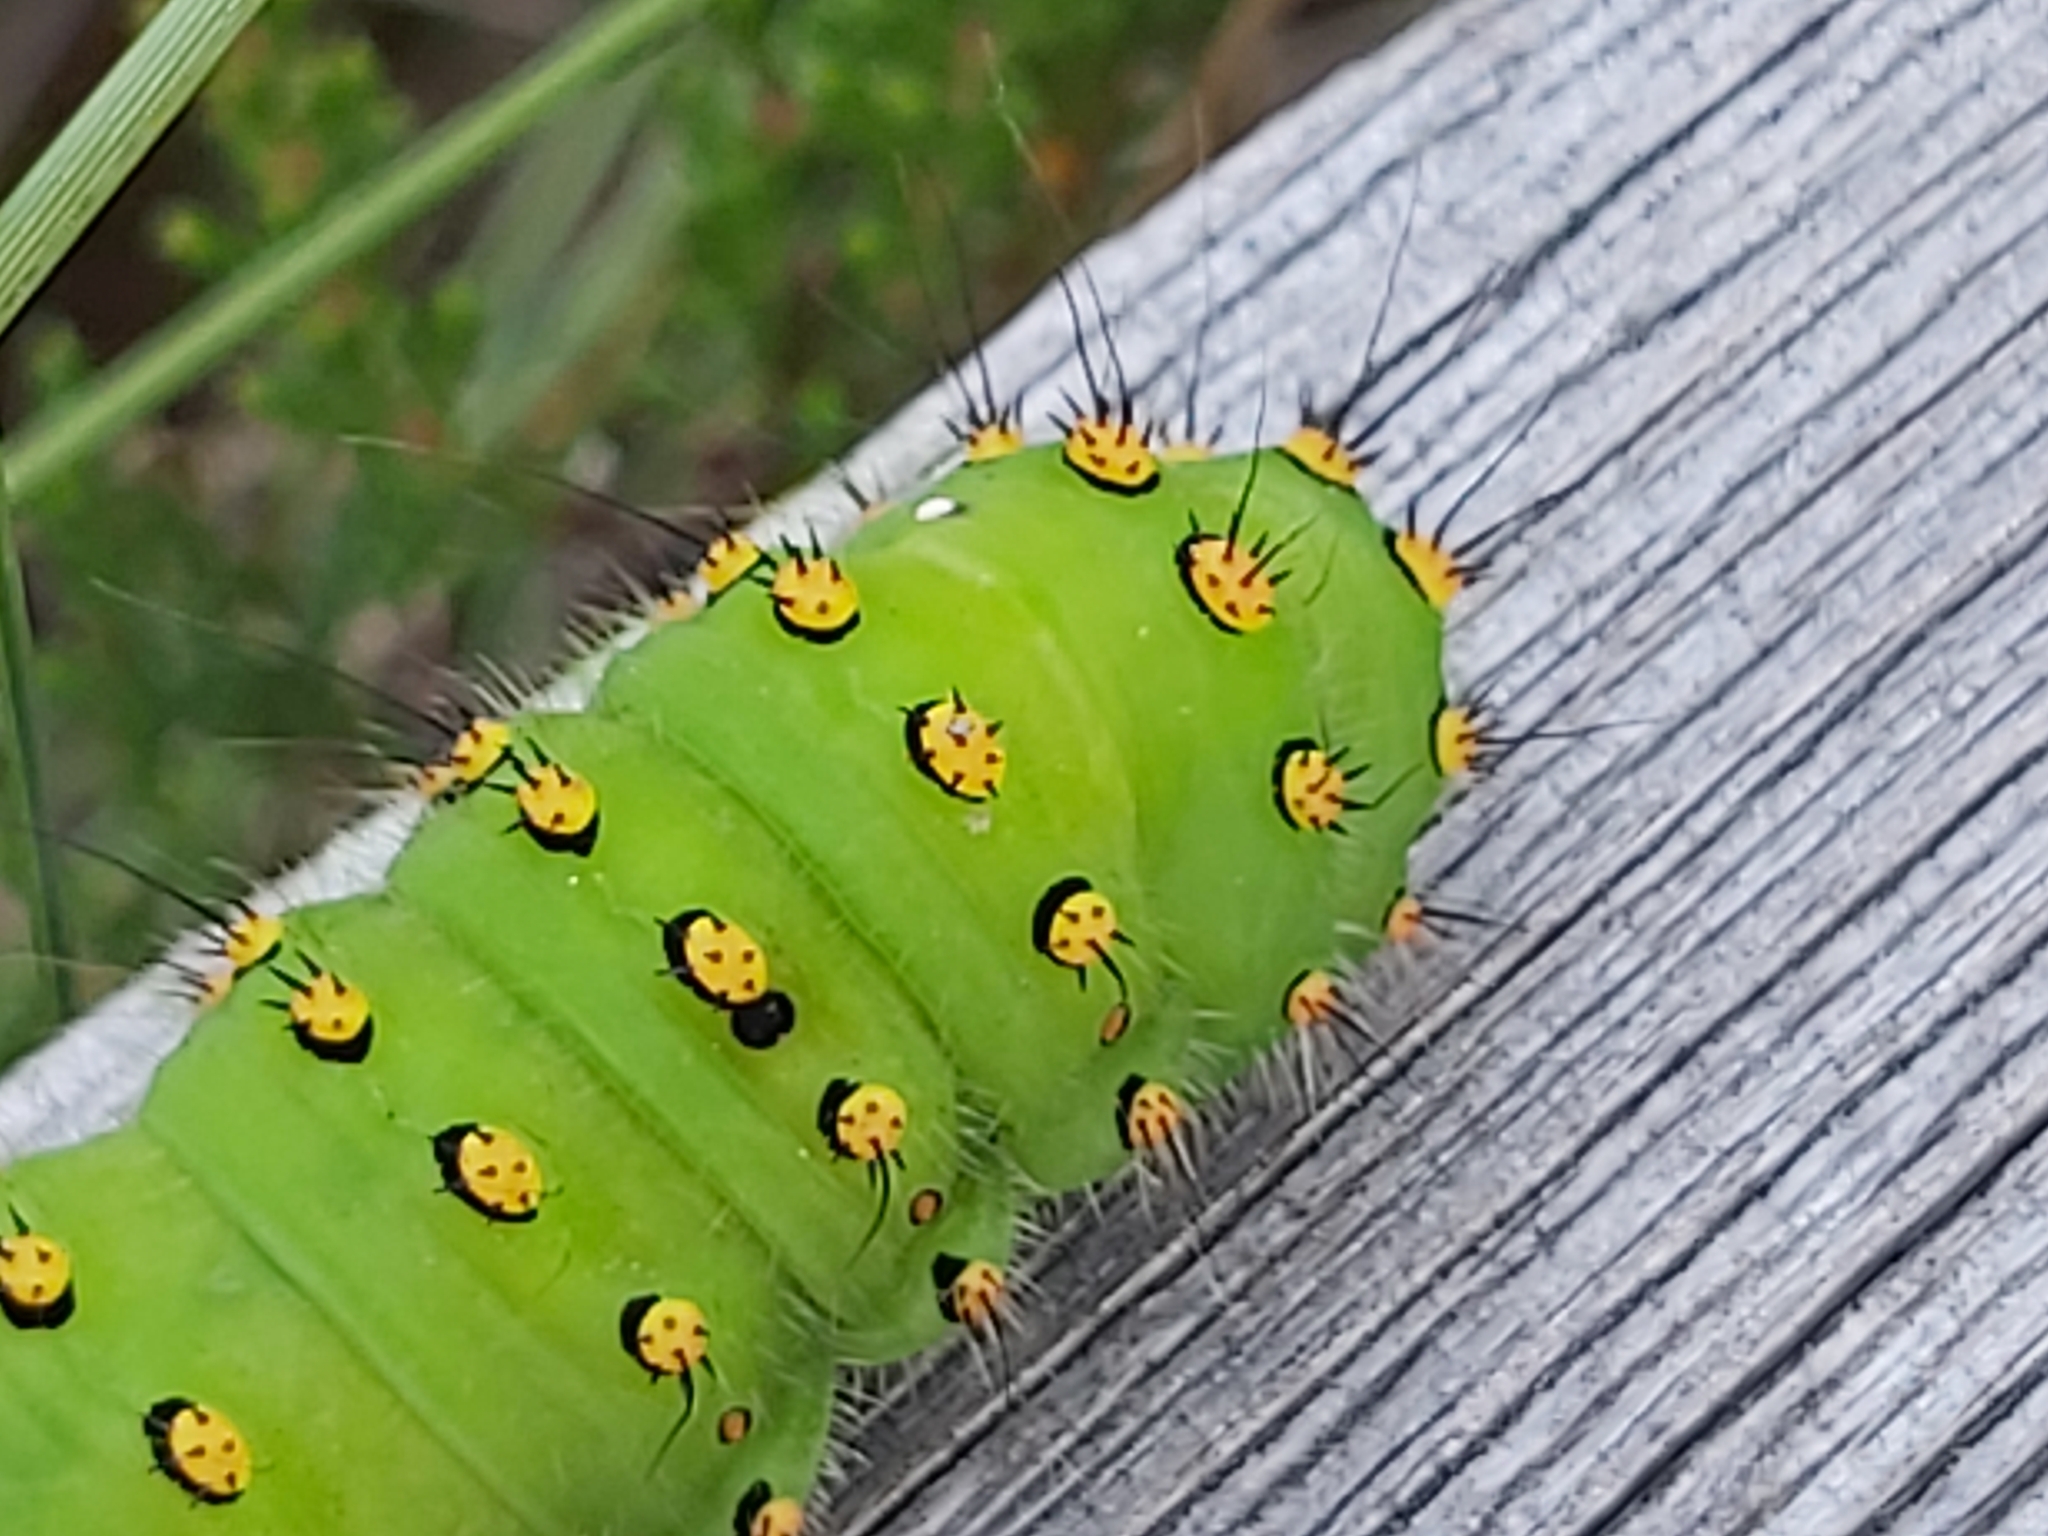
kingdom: Animalia
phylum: Arthropoda
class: Insecta
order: Lepidoptera
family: Saturniidae
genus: Saturnia
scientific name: Saturnia pavonia
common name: Emperor moth
